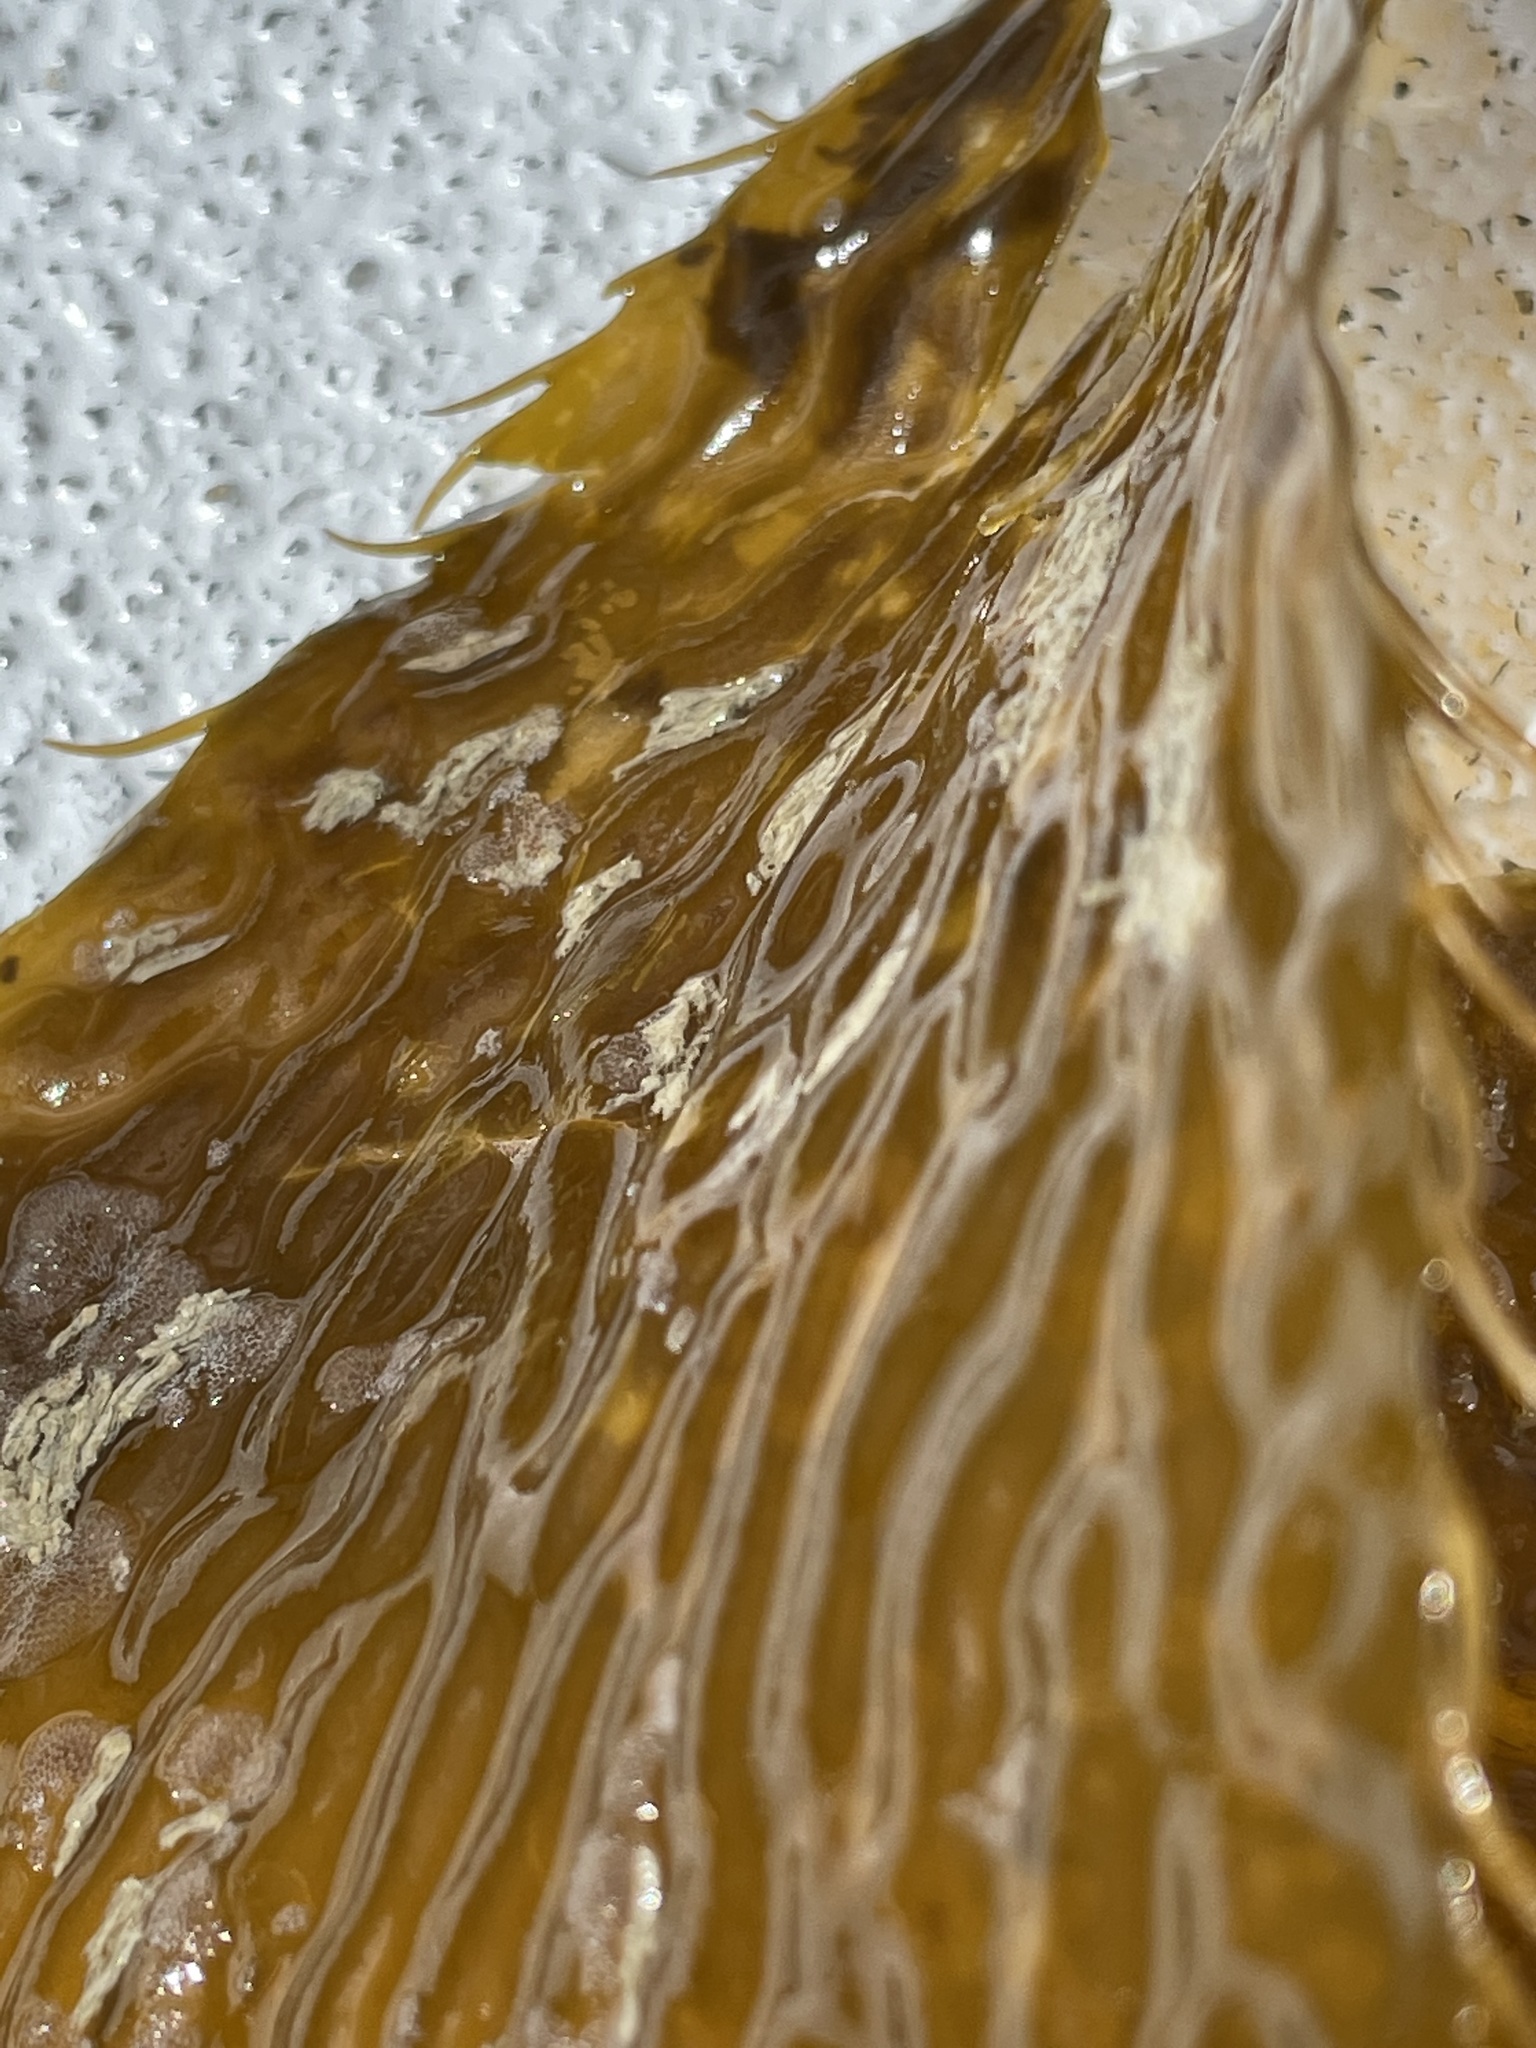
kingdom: Chromista
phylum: Ochrophyta
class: Phaeophyceae
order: Laminariales
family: Laminariaceae
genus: Macrocystis
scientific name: Macrocystis pyrifera
